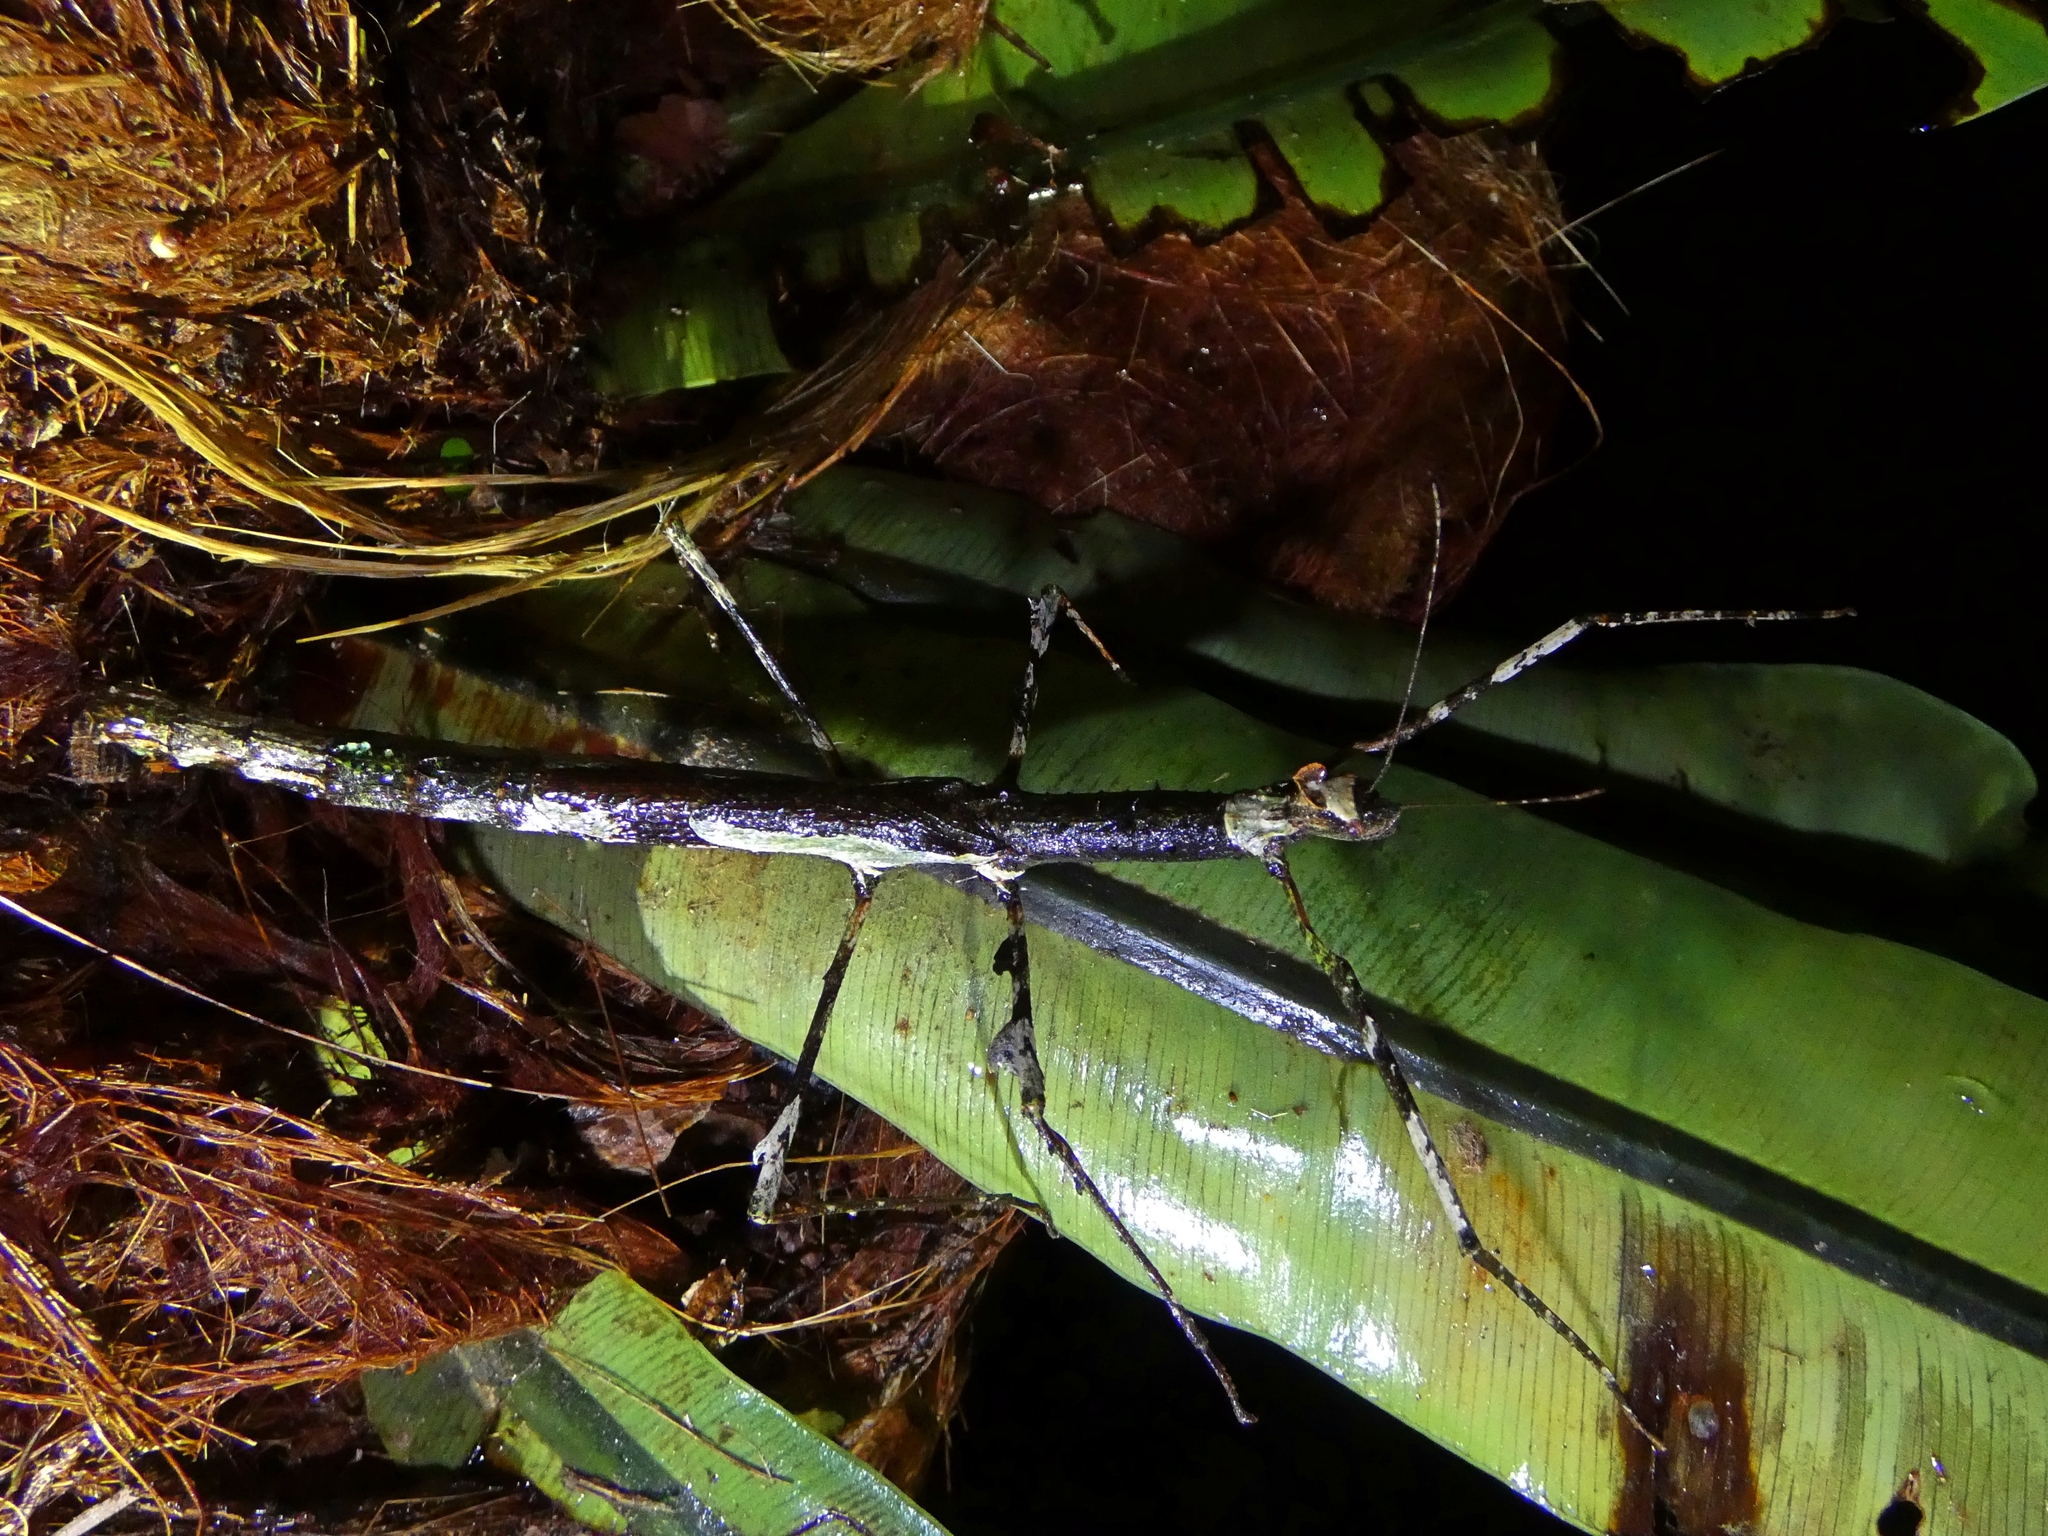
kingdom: Animalia
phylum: Arthropoda
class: Insecta
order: Phasmida
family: Phasmatidae
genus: Onchestus
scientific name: Onchestus rentzi
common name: Rentz's stick-insect
